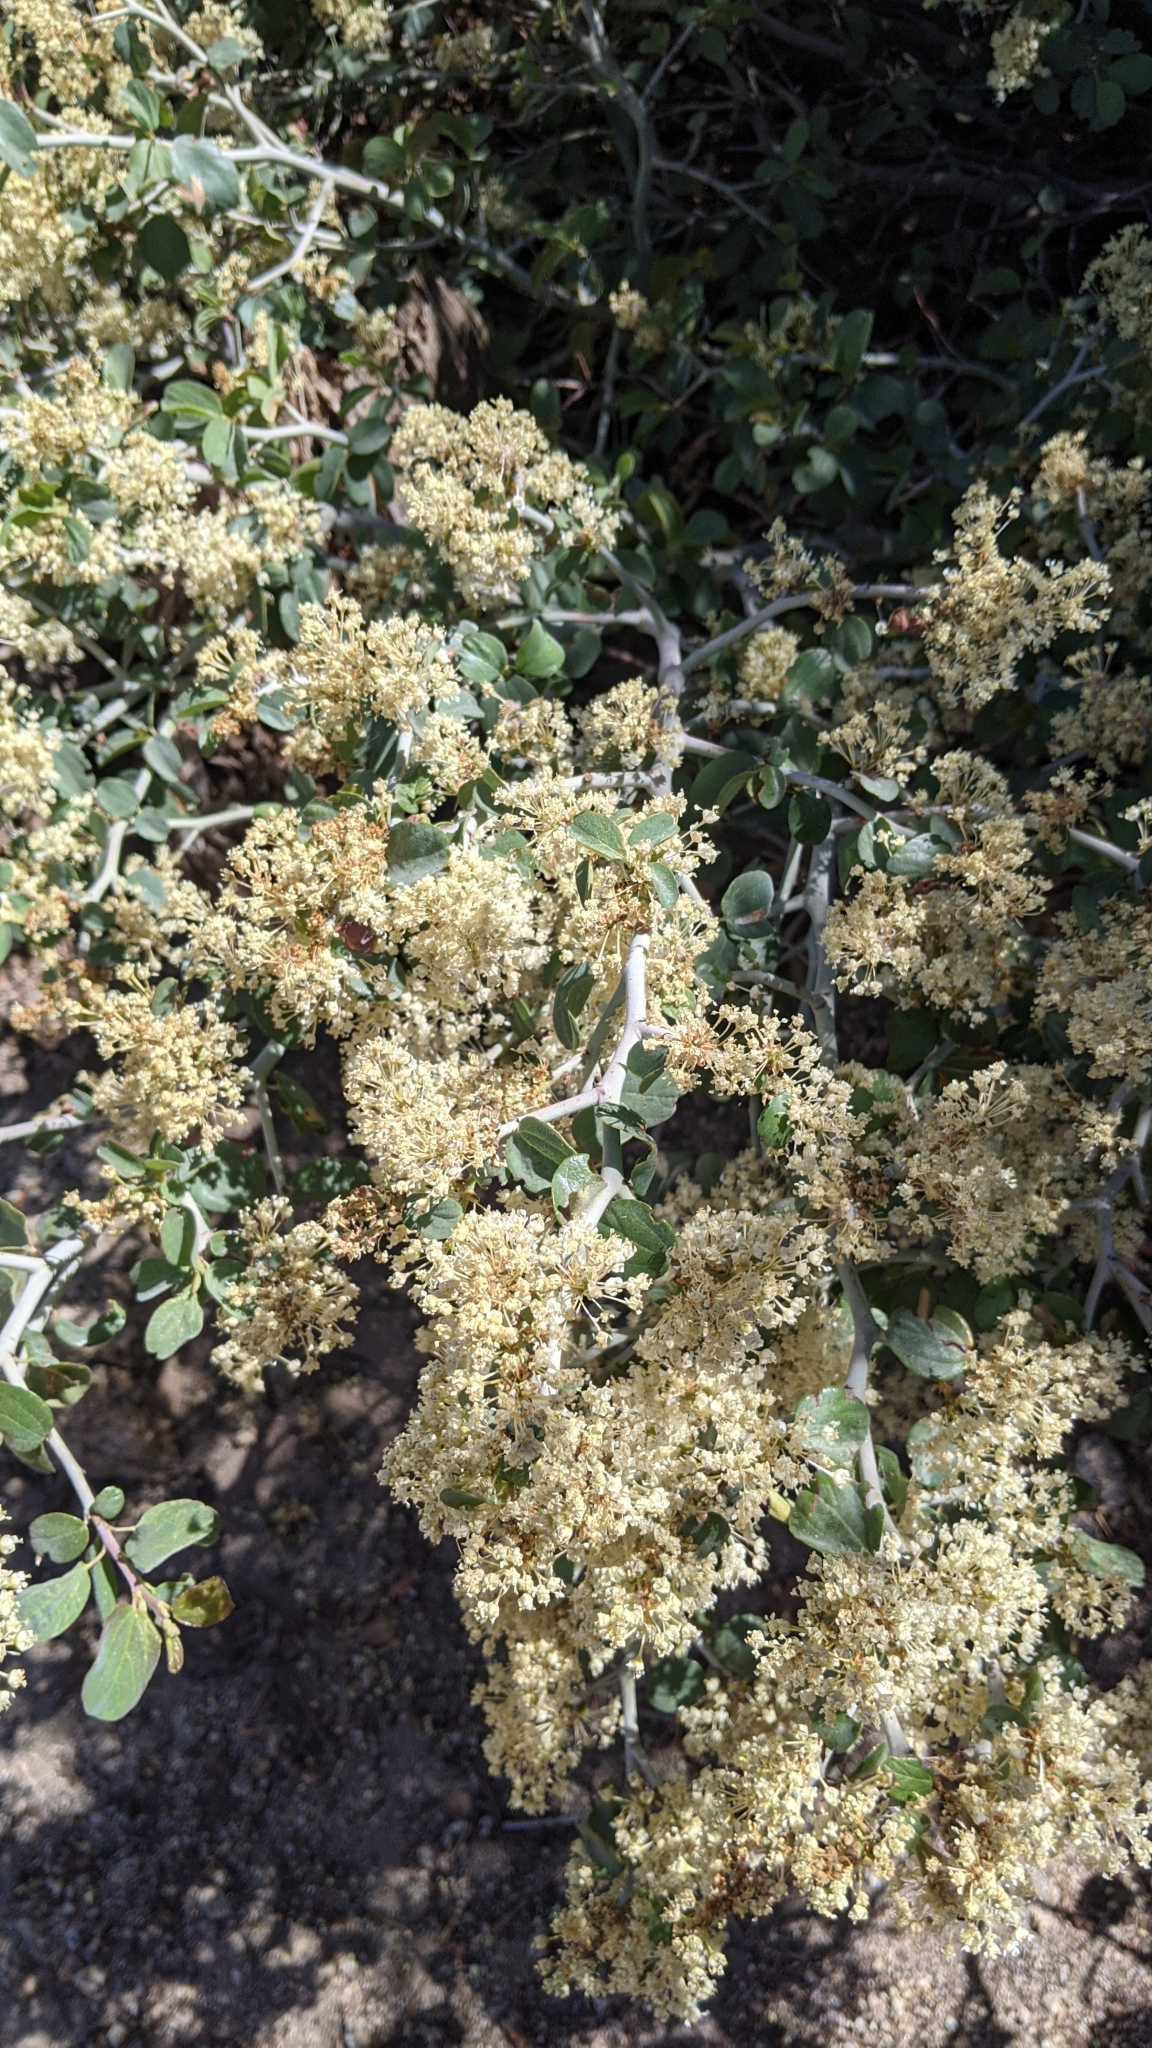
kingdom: Plantae
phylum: Tracheophyta
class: Magnoliopsida
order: Rosales
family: Rhamnaceae
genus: Ceanothus
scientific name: Ceanothus cordulatus
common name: Mountain whitethorn
